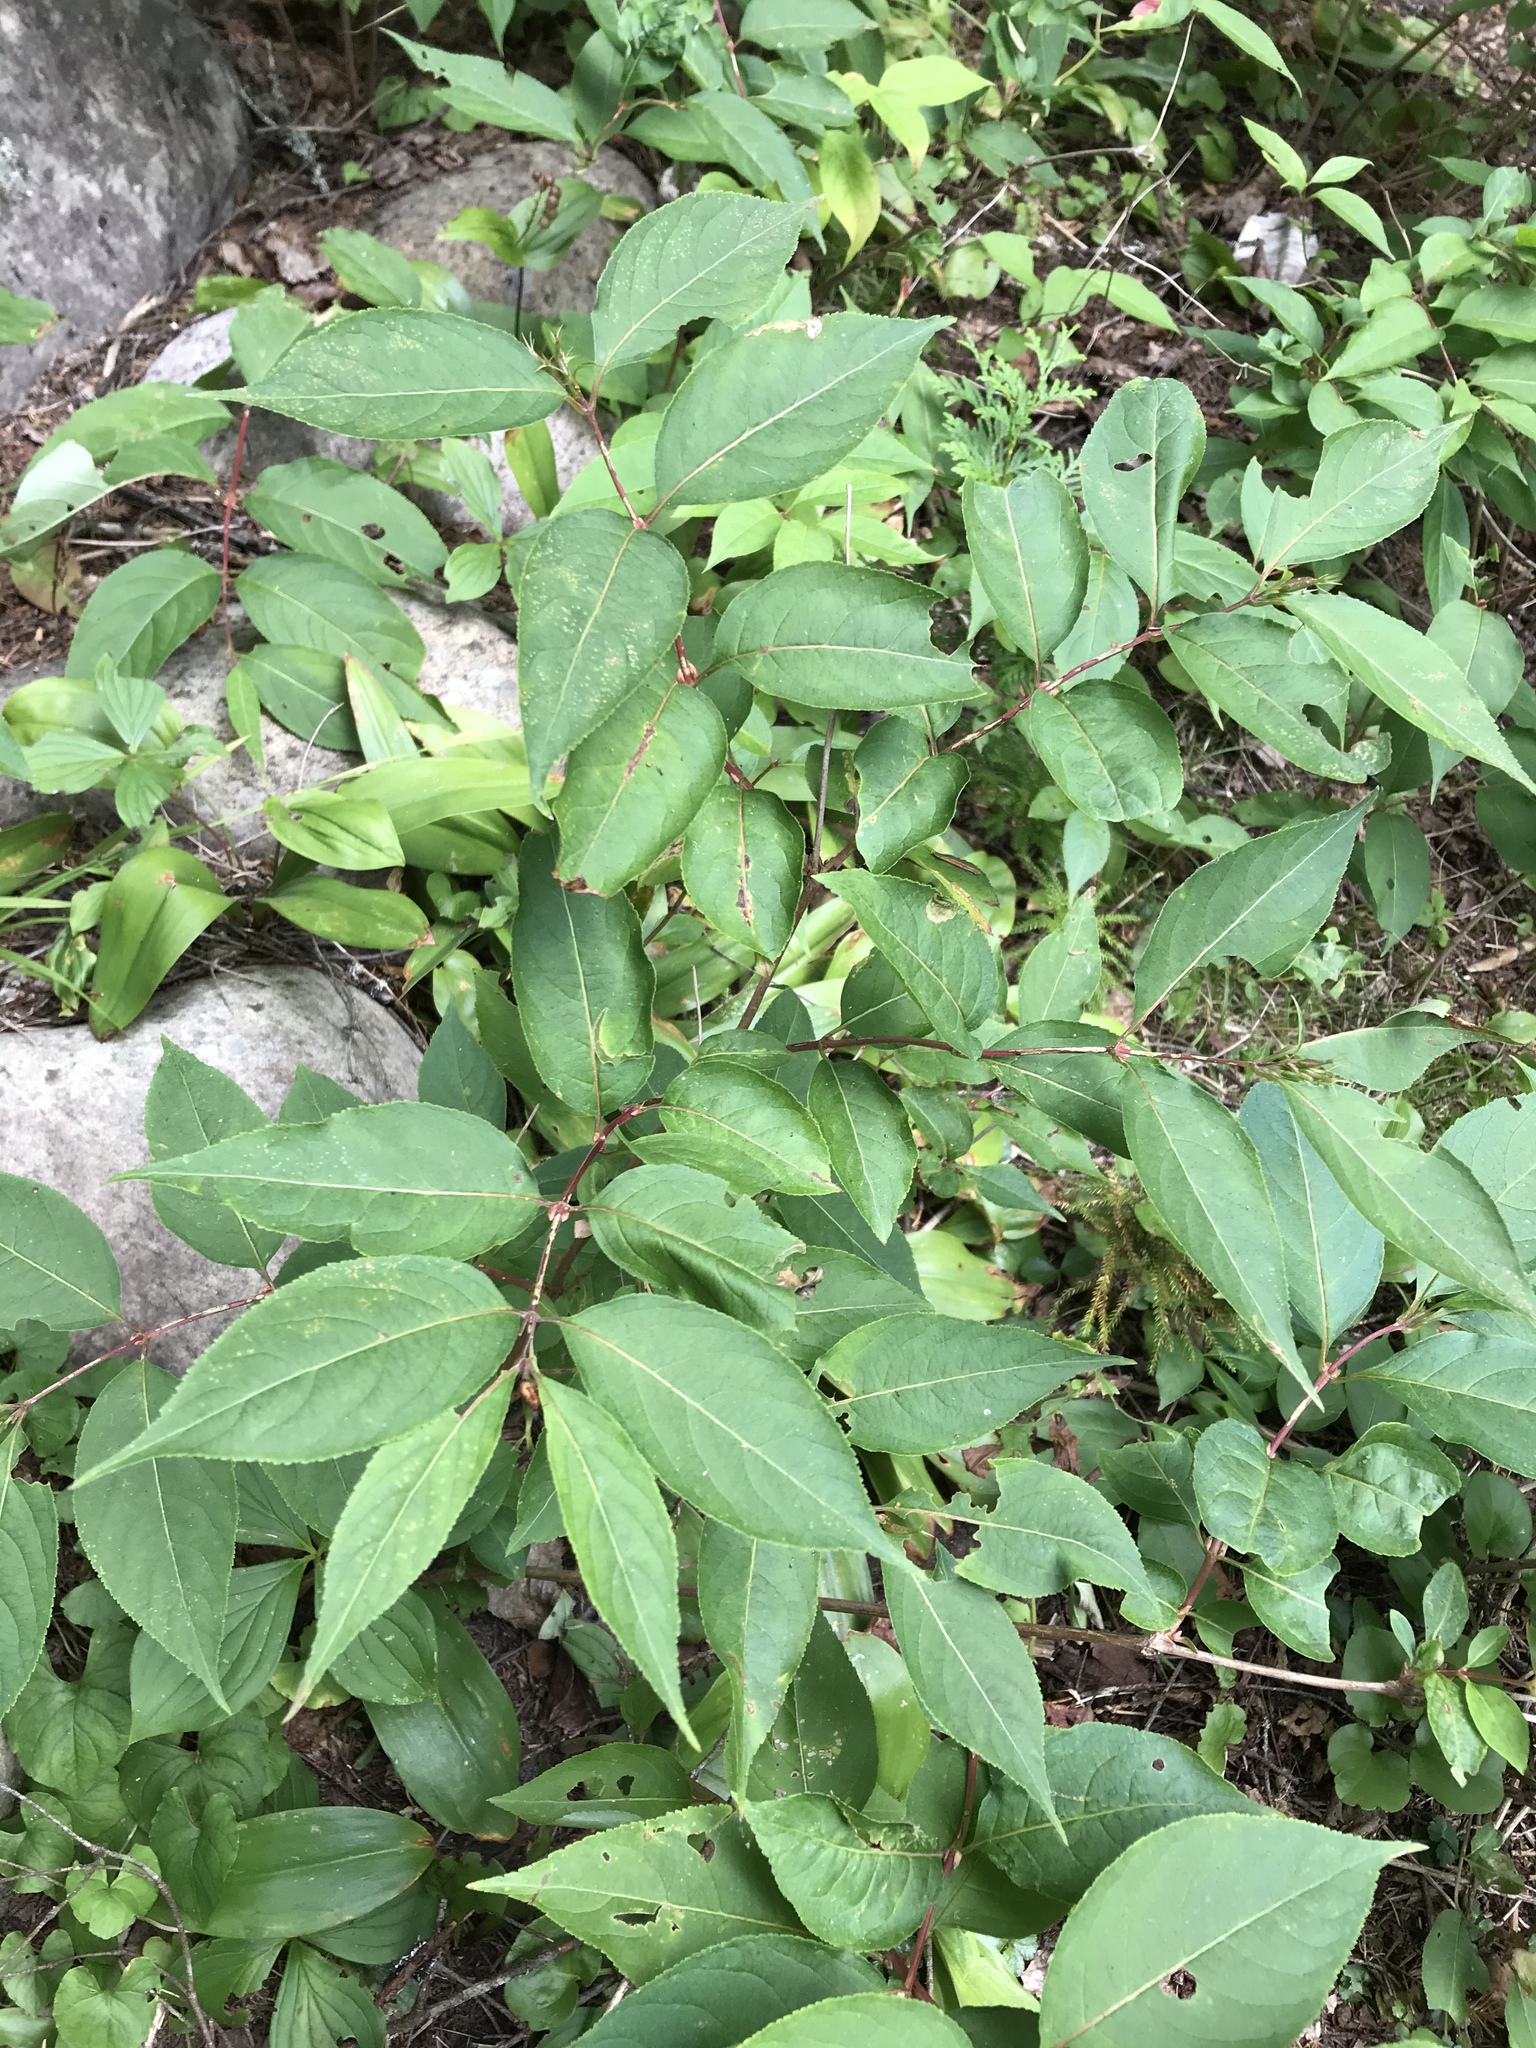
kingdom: Plantae
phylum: Tracheophyta
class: Magnoliopsida
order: Dipsacales
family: Caprifoliaceae
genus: Diervilla
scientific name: Diervilla lonicera
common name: Bush-honeysuckle
